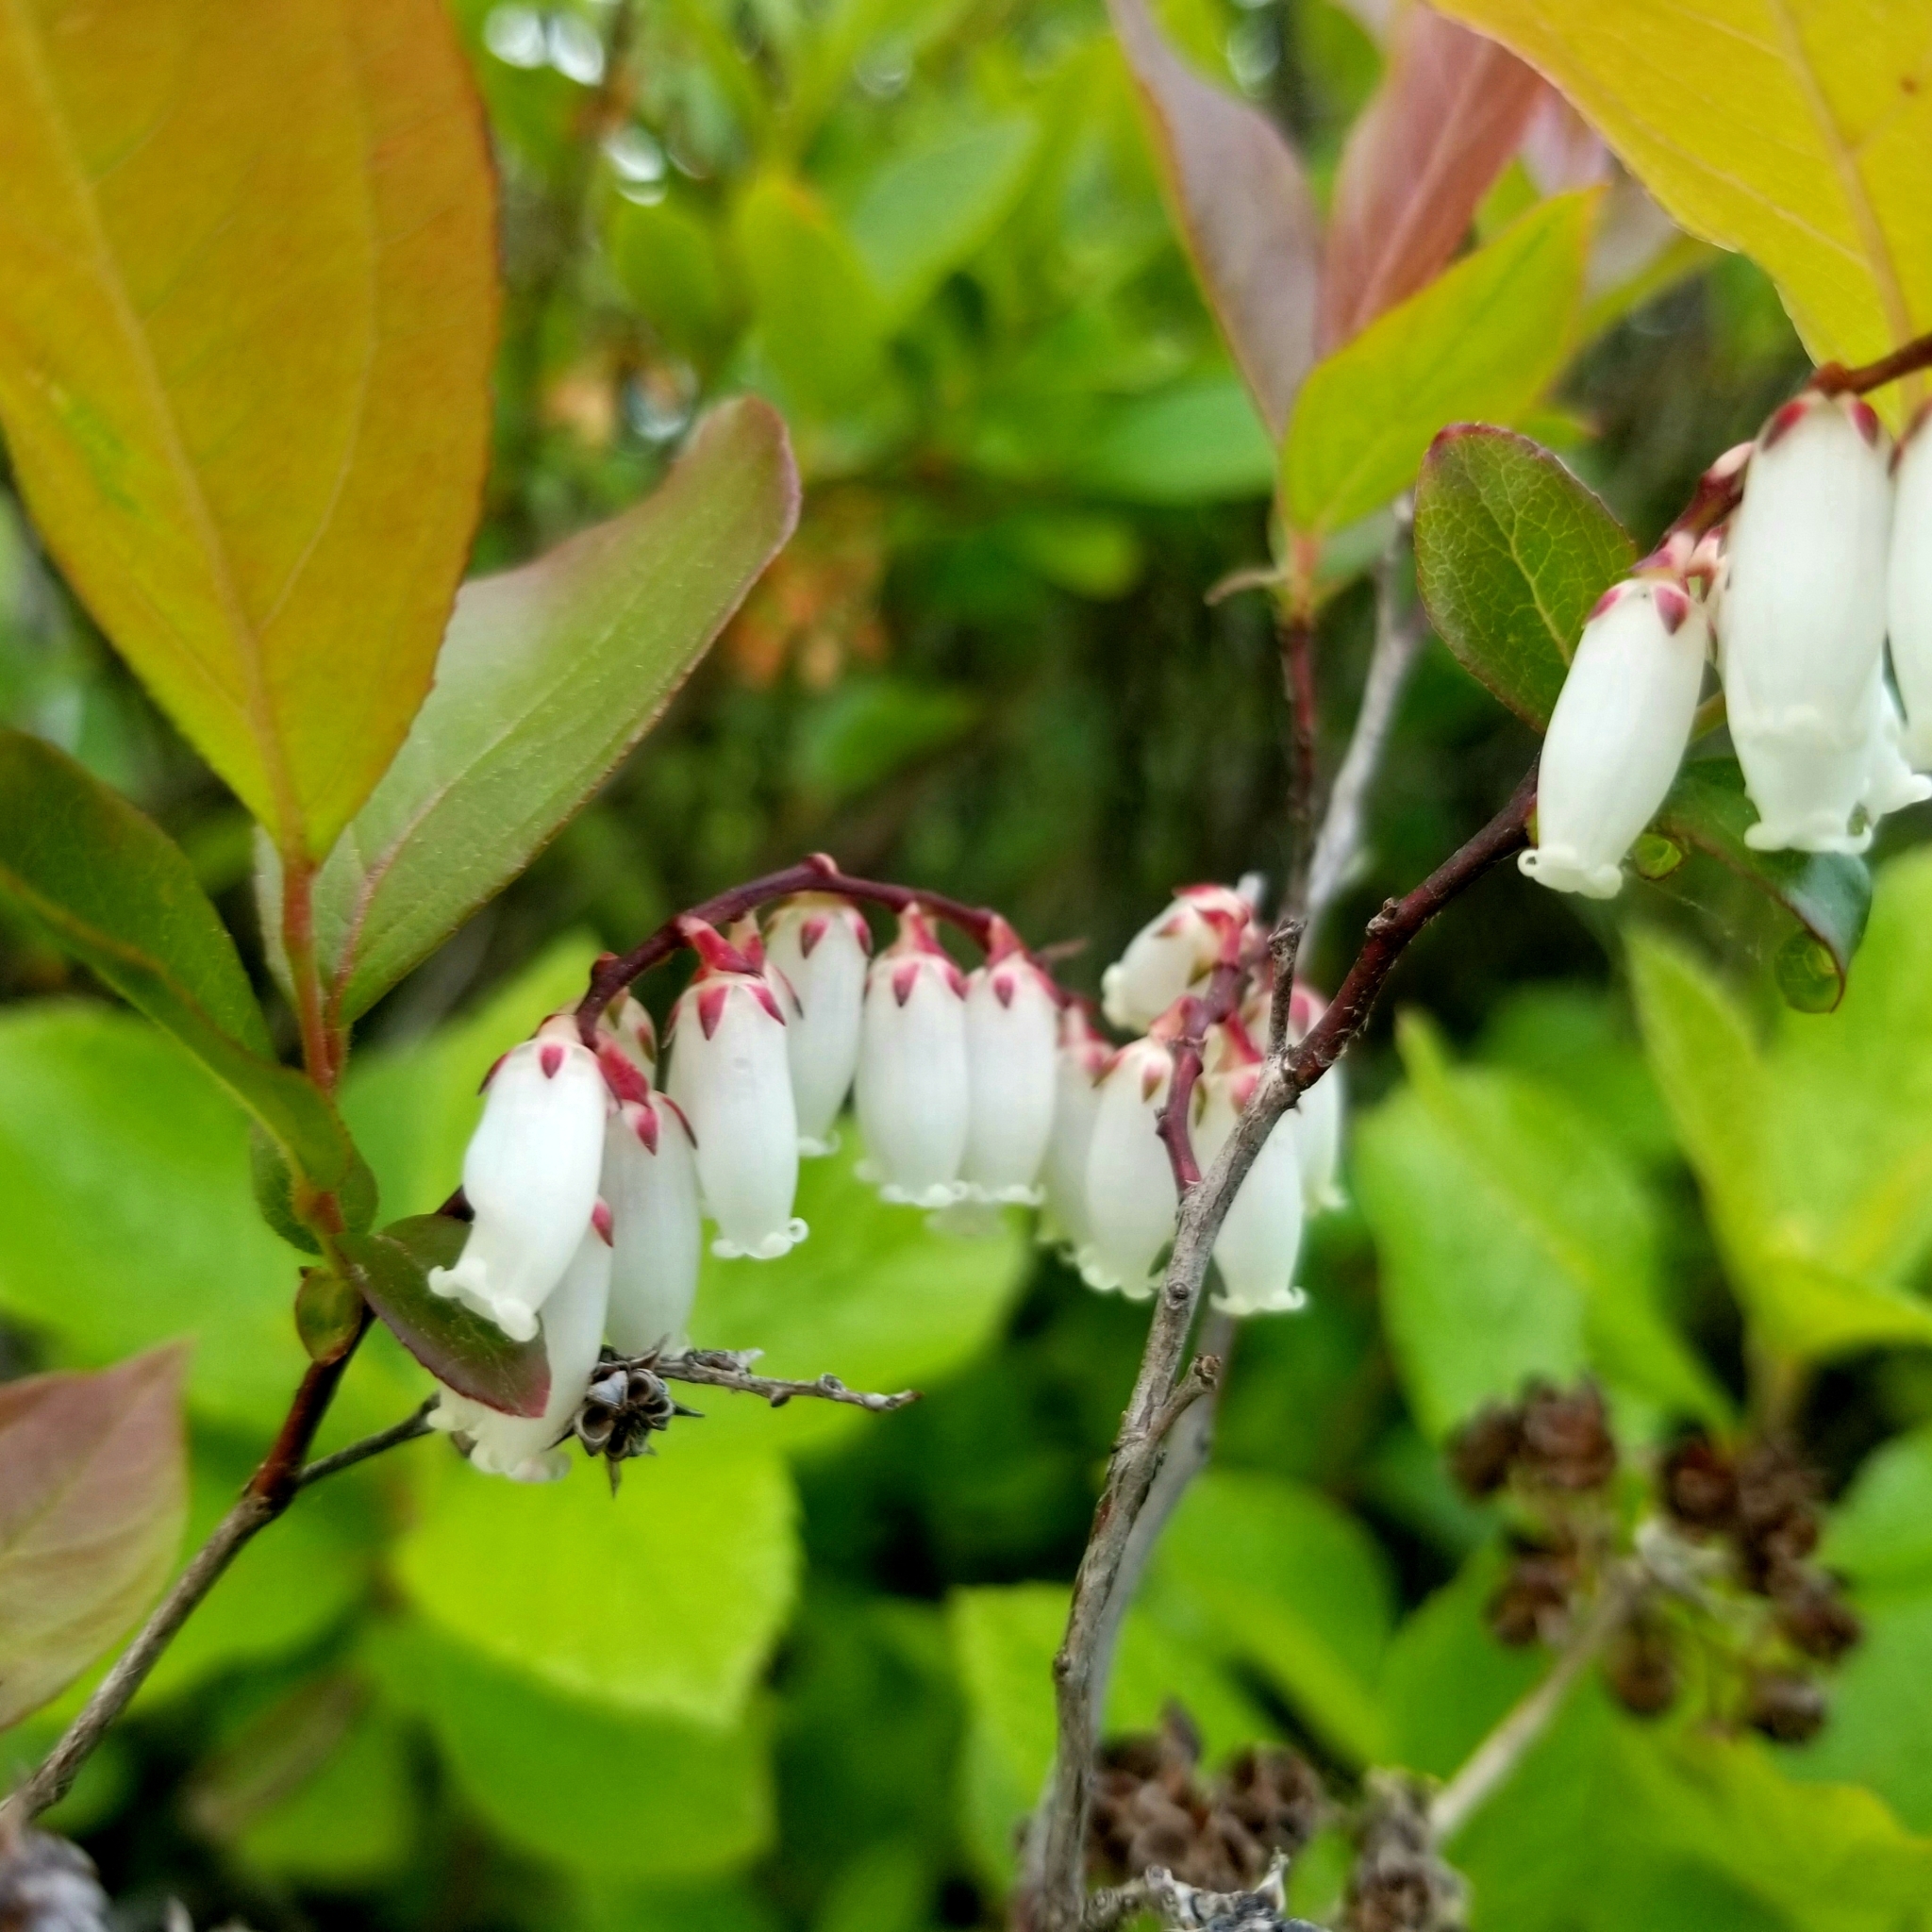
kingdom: Plantae
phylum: Tracheophyta
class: Magnoliopsida
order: Ericales
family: Ericaceae
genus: Eubotrys
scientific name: Eubotrys racemosa
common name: Fetterbush
